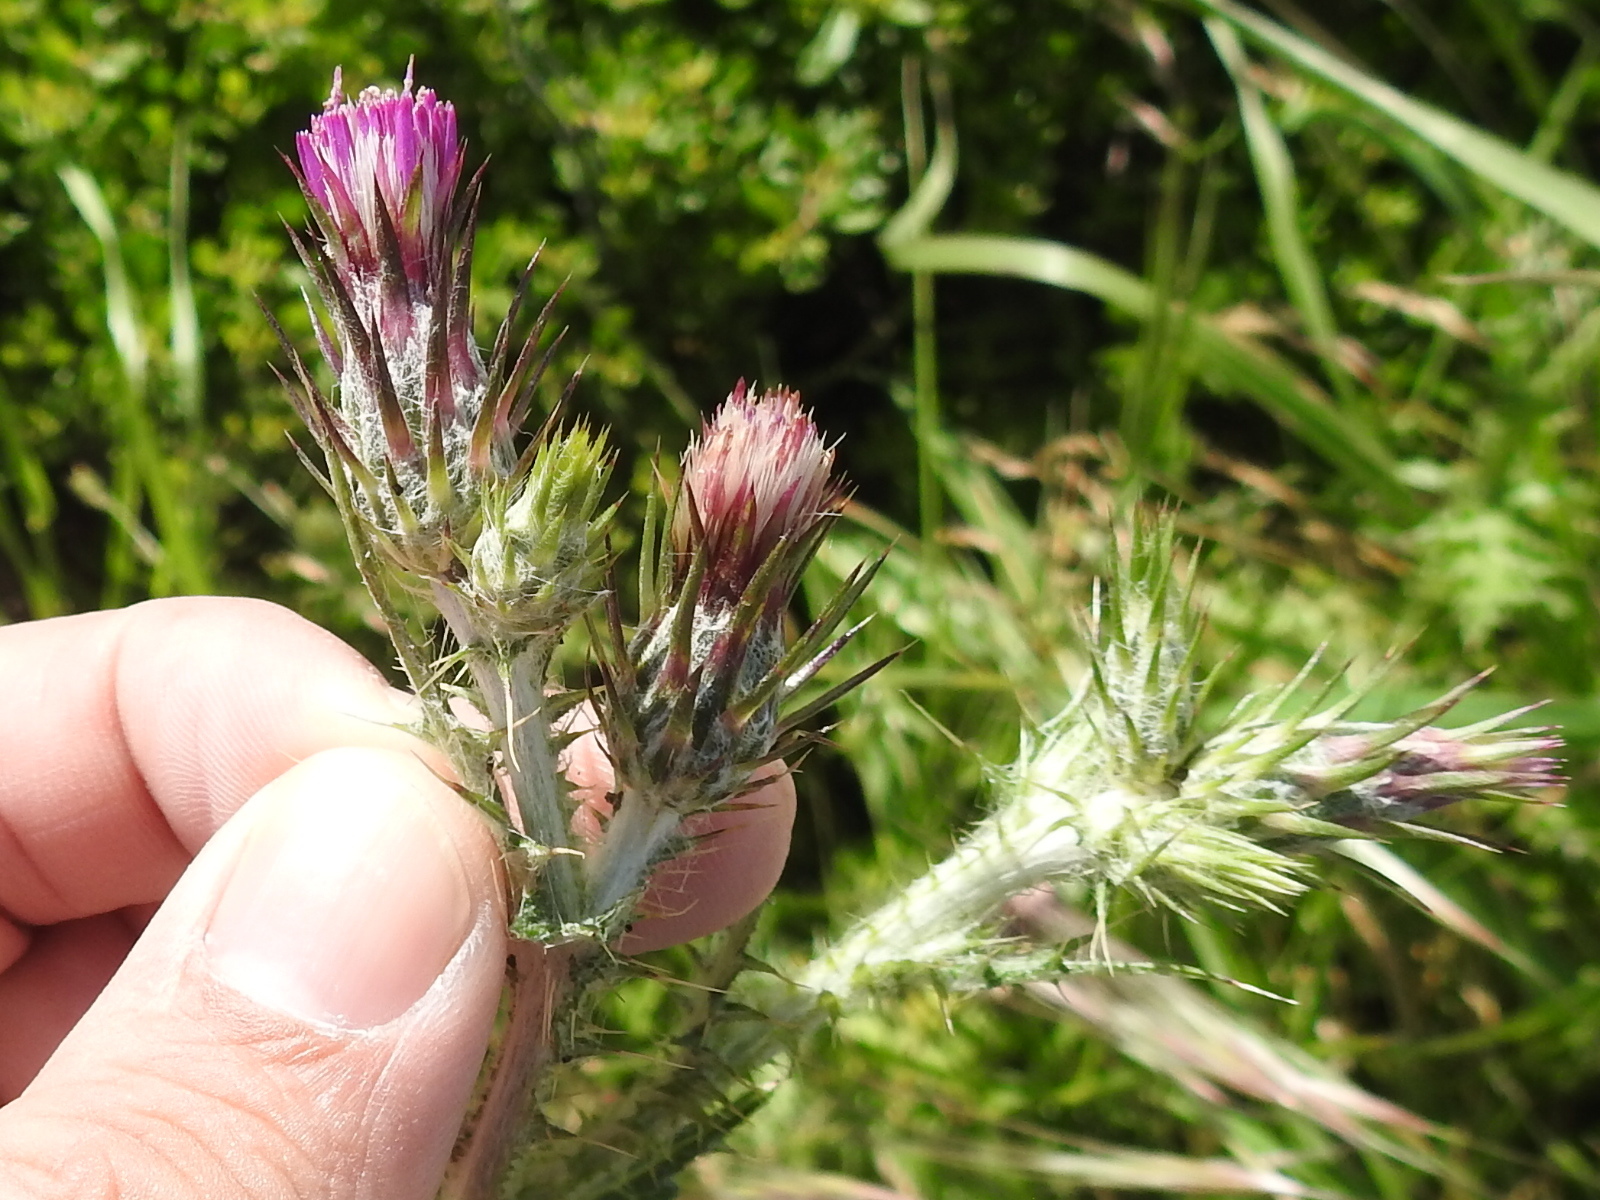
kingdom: Plantae
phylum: Tracheophyta
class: Magnoliopsida
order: Asterales
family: Asteraceae
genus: Carduus
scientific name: Carduus pycnocephalus
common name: Plymouth thistle
